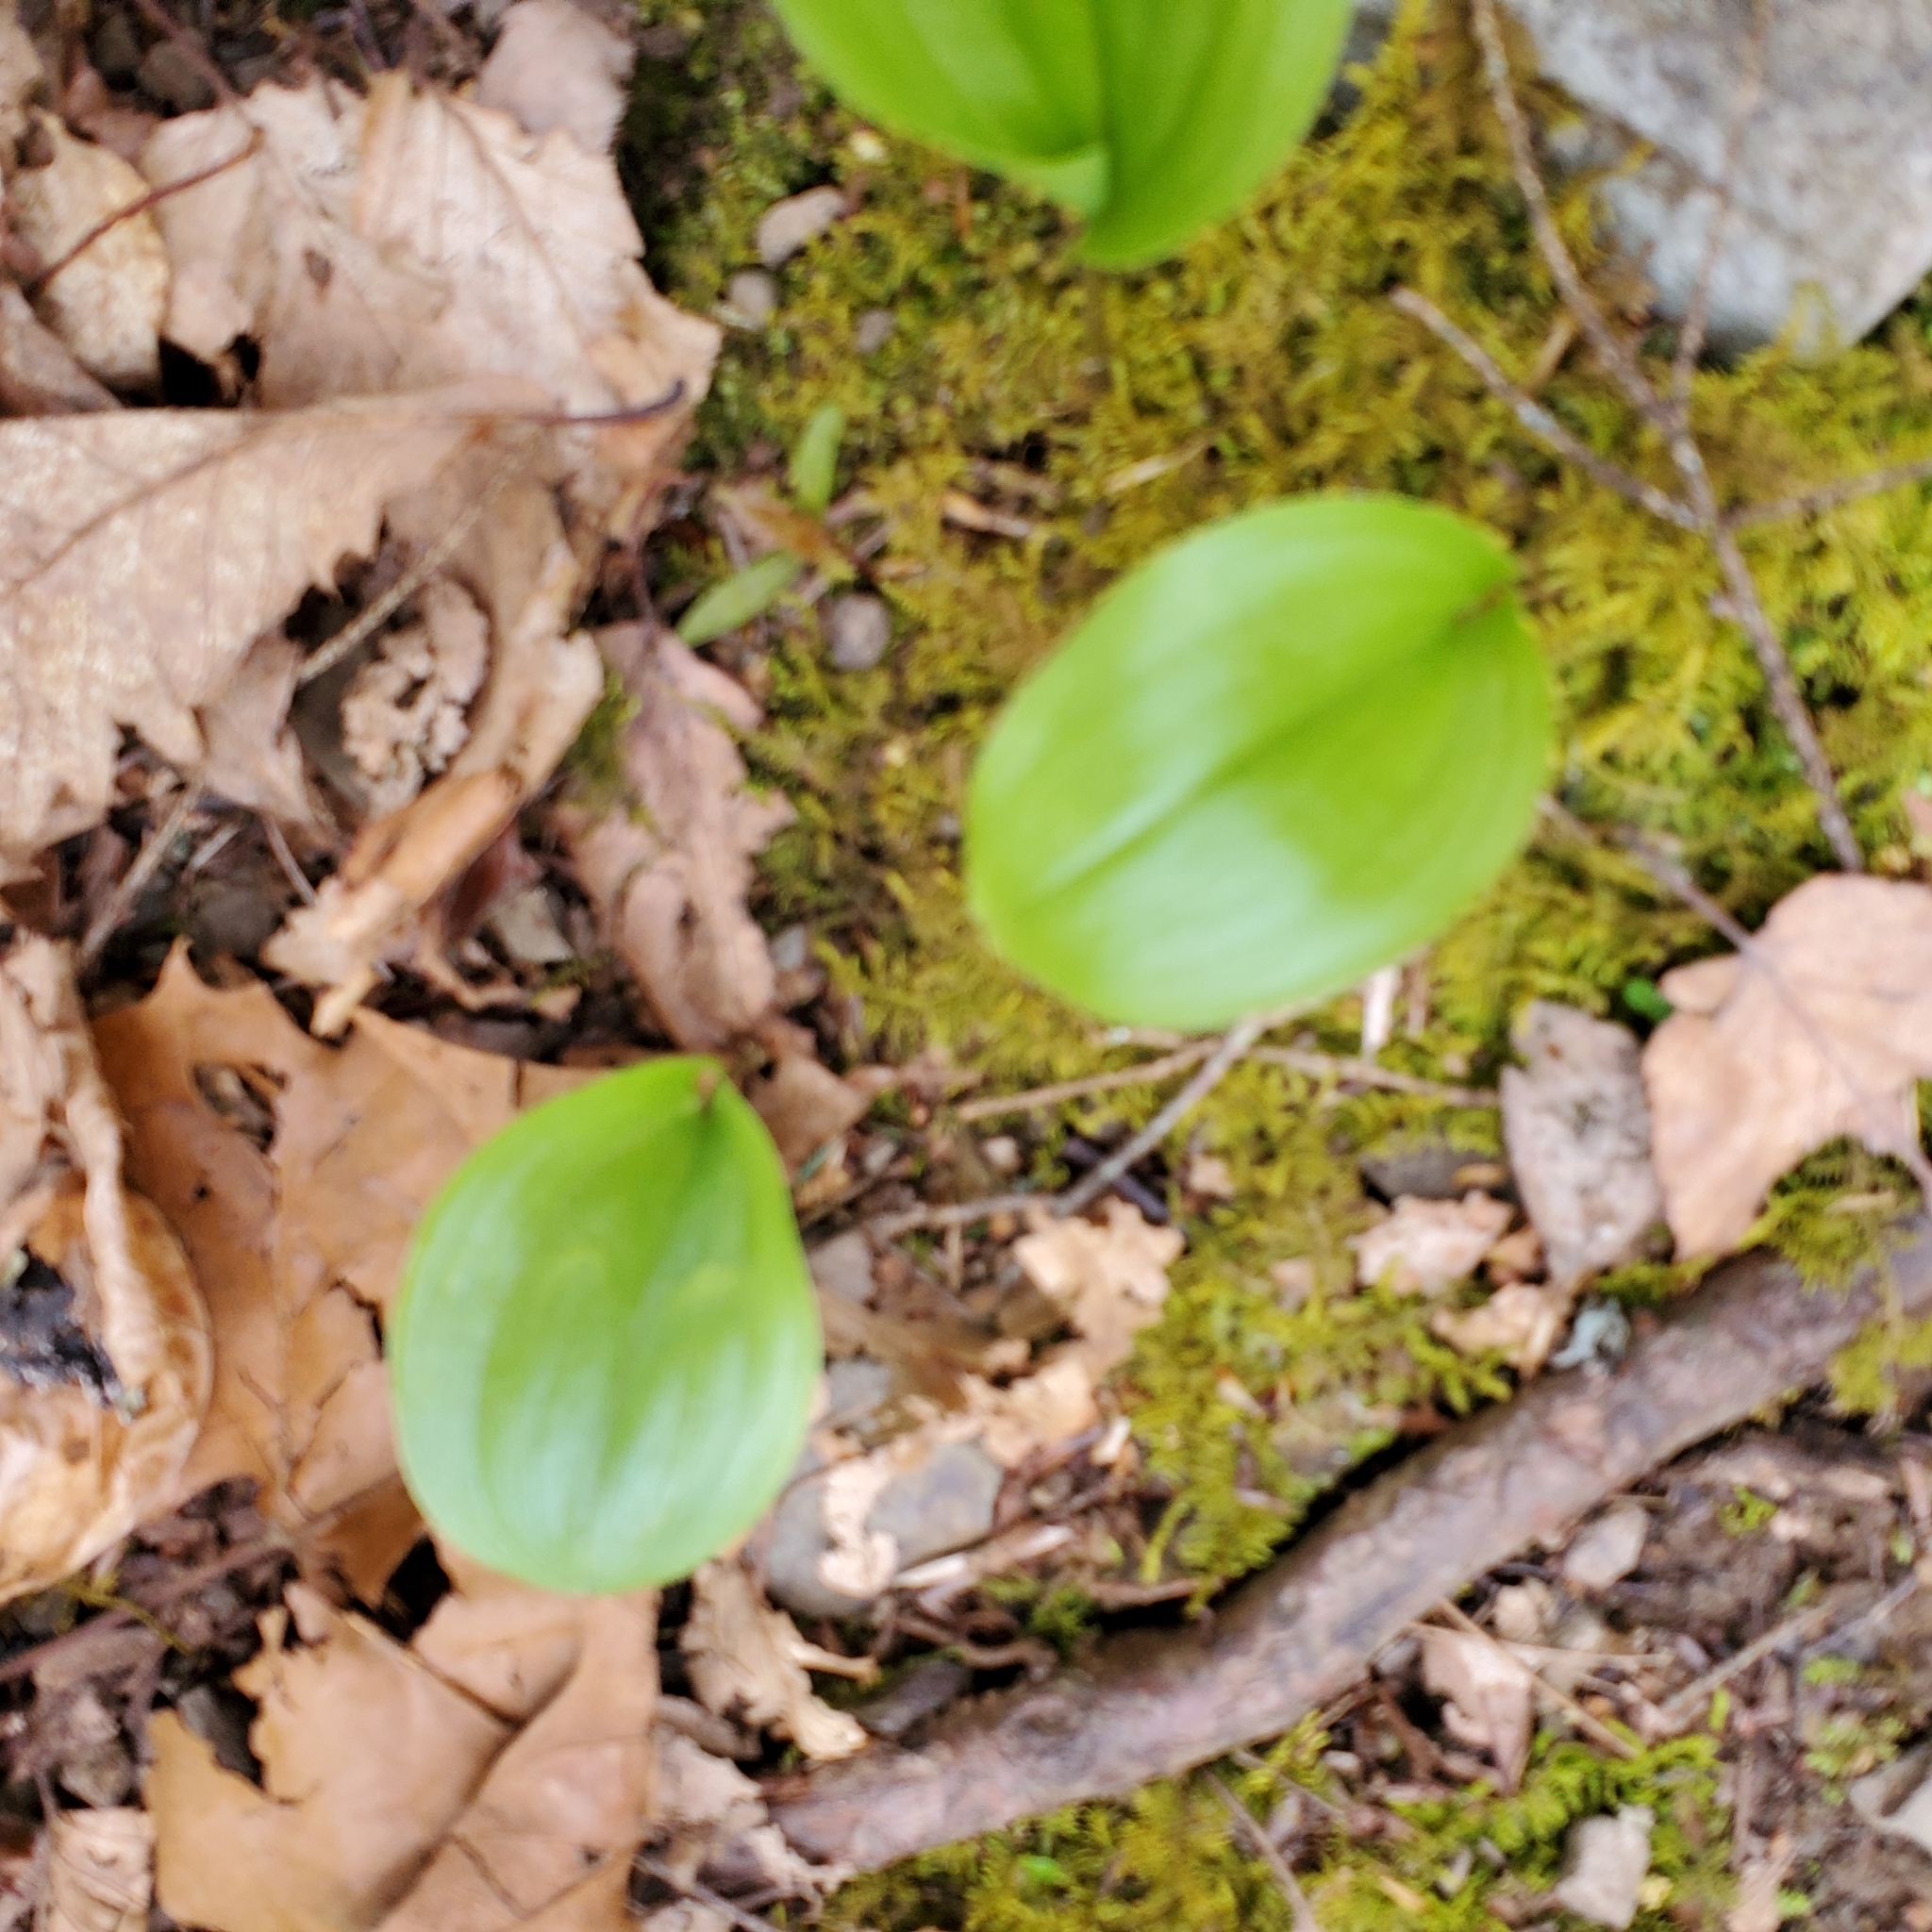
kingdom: Plantae
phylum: Tracheophyta
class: Liliopsida
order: Asparagales
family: Asparagaceae
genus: Maianthemum
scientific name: Maianthemum canadense
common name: False lily-of-the-valley
